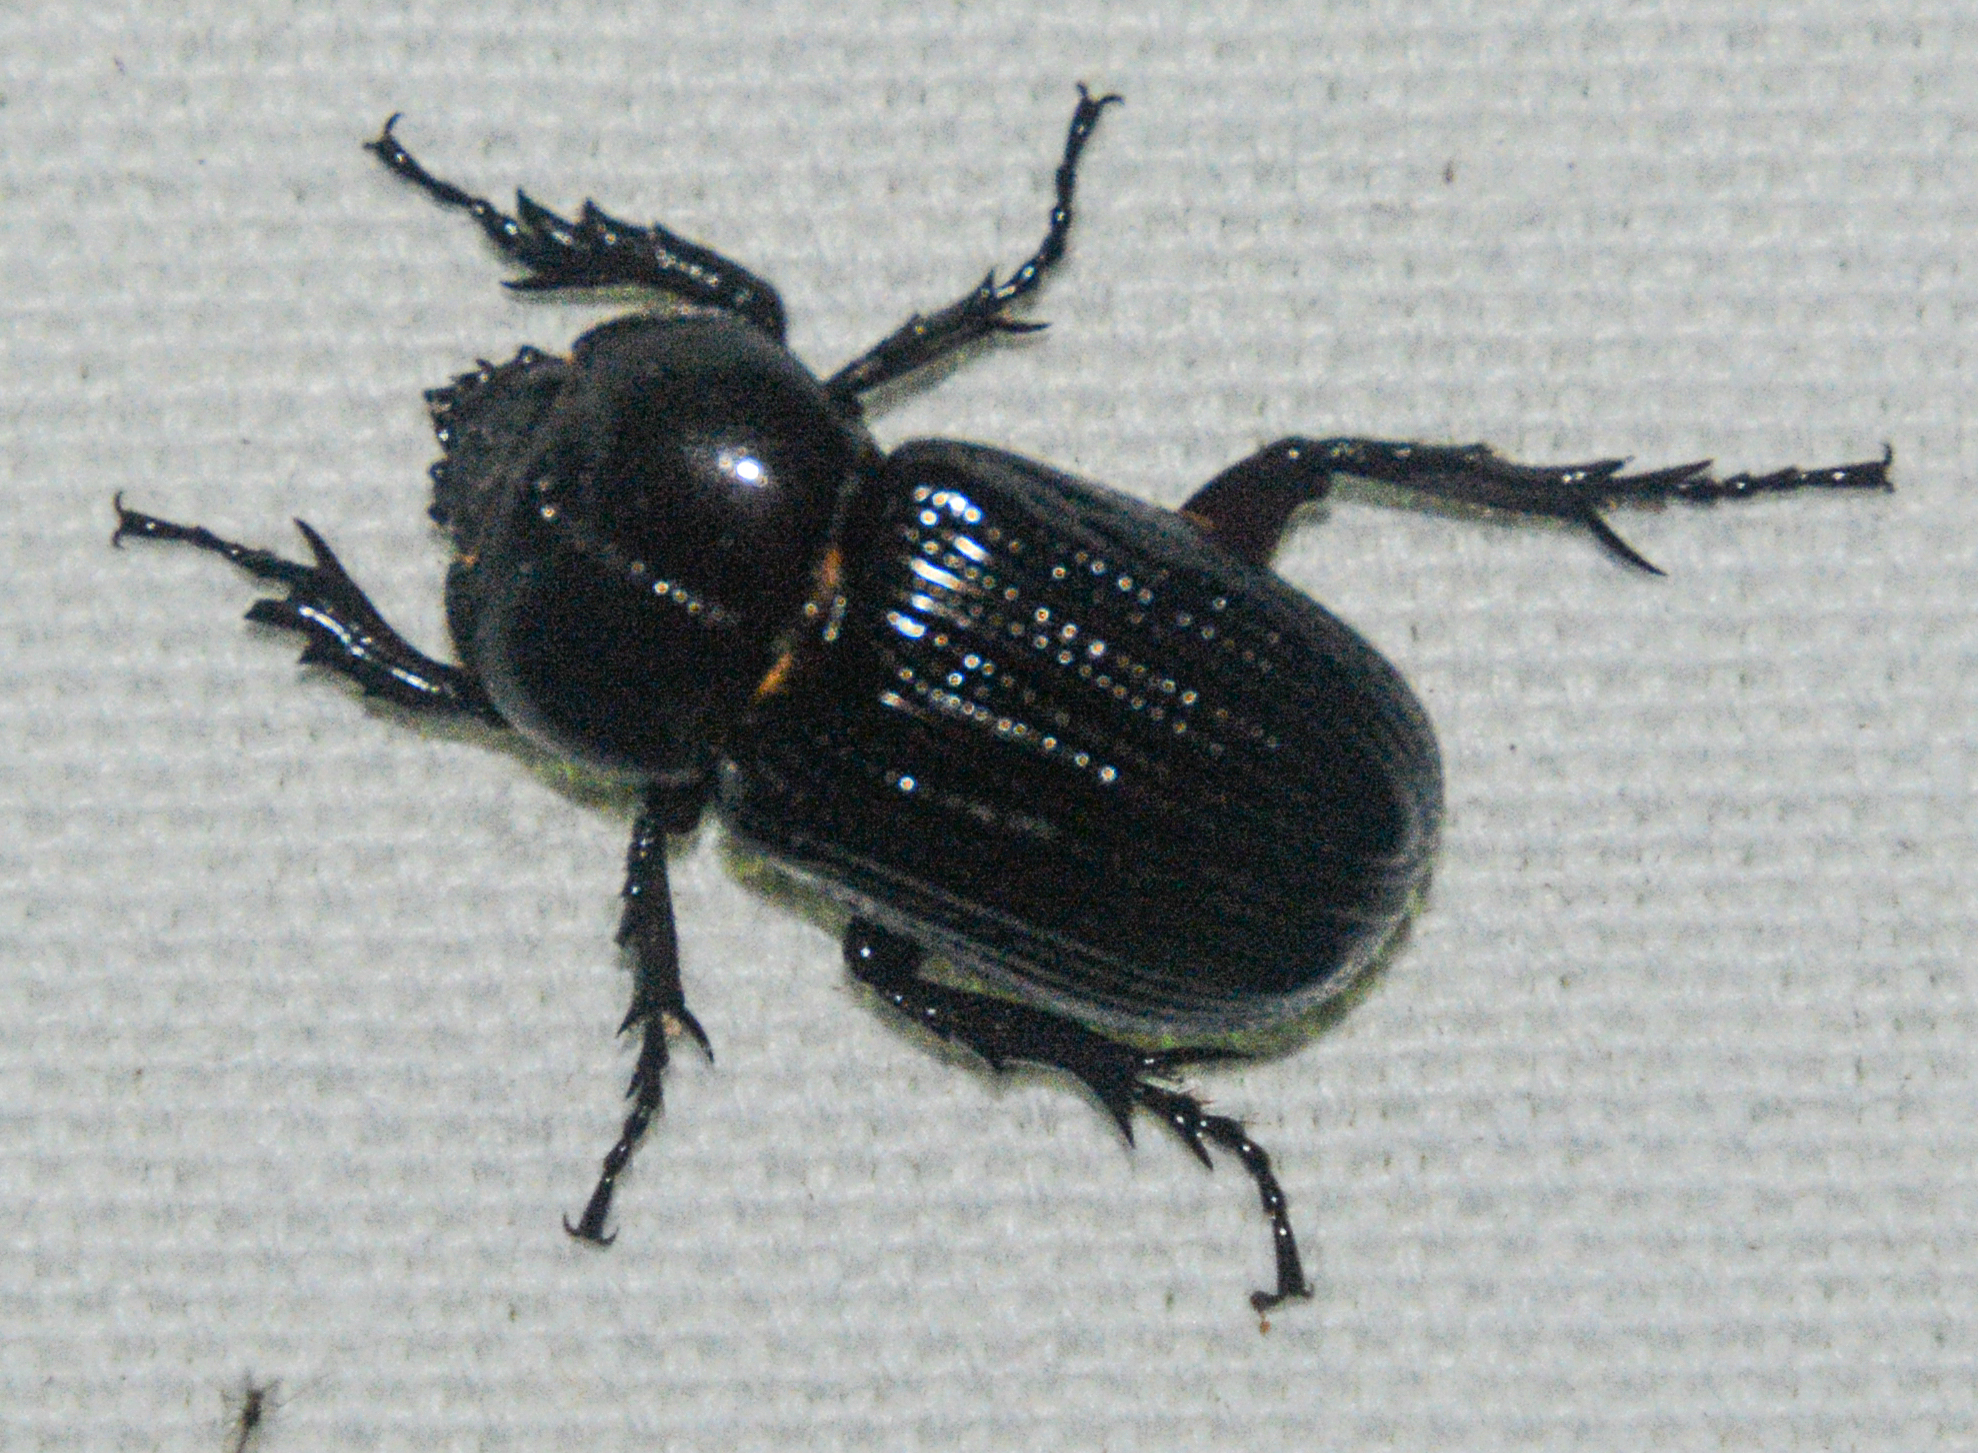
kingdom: Animalia
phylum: Arthropoda
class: Insecta
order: Coleoptera
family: Scarabaeidae
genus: Phileurus
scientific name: Phileurus valgus
